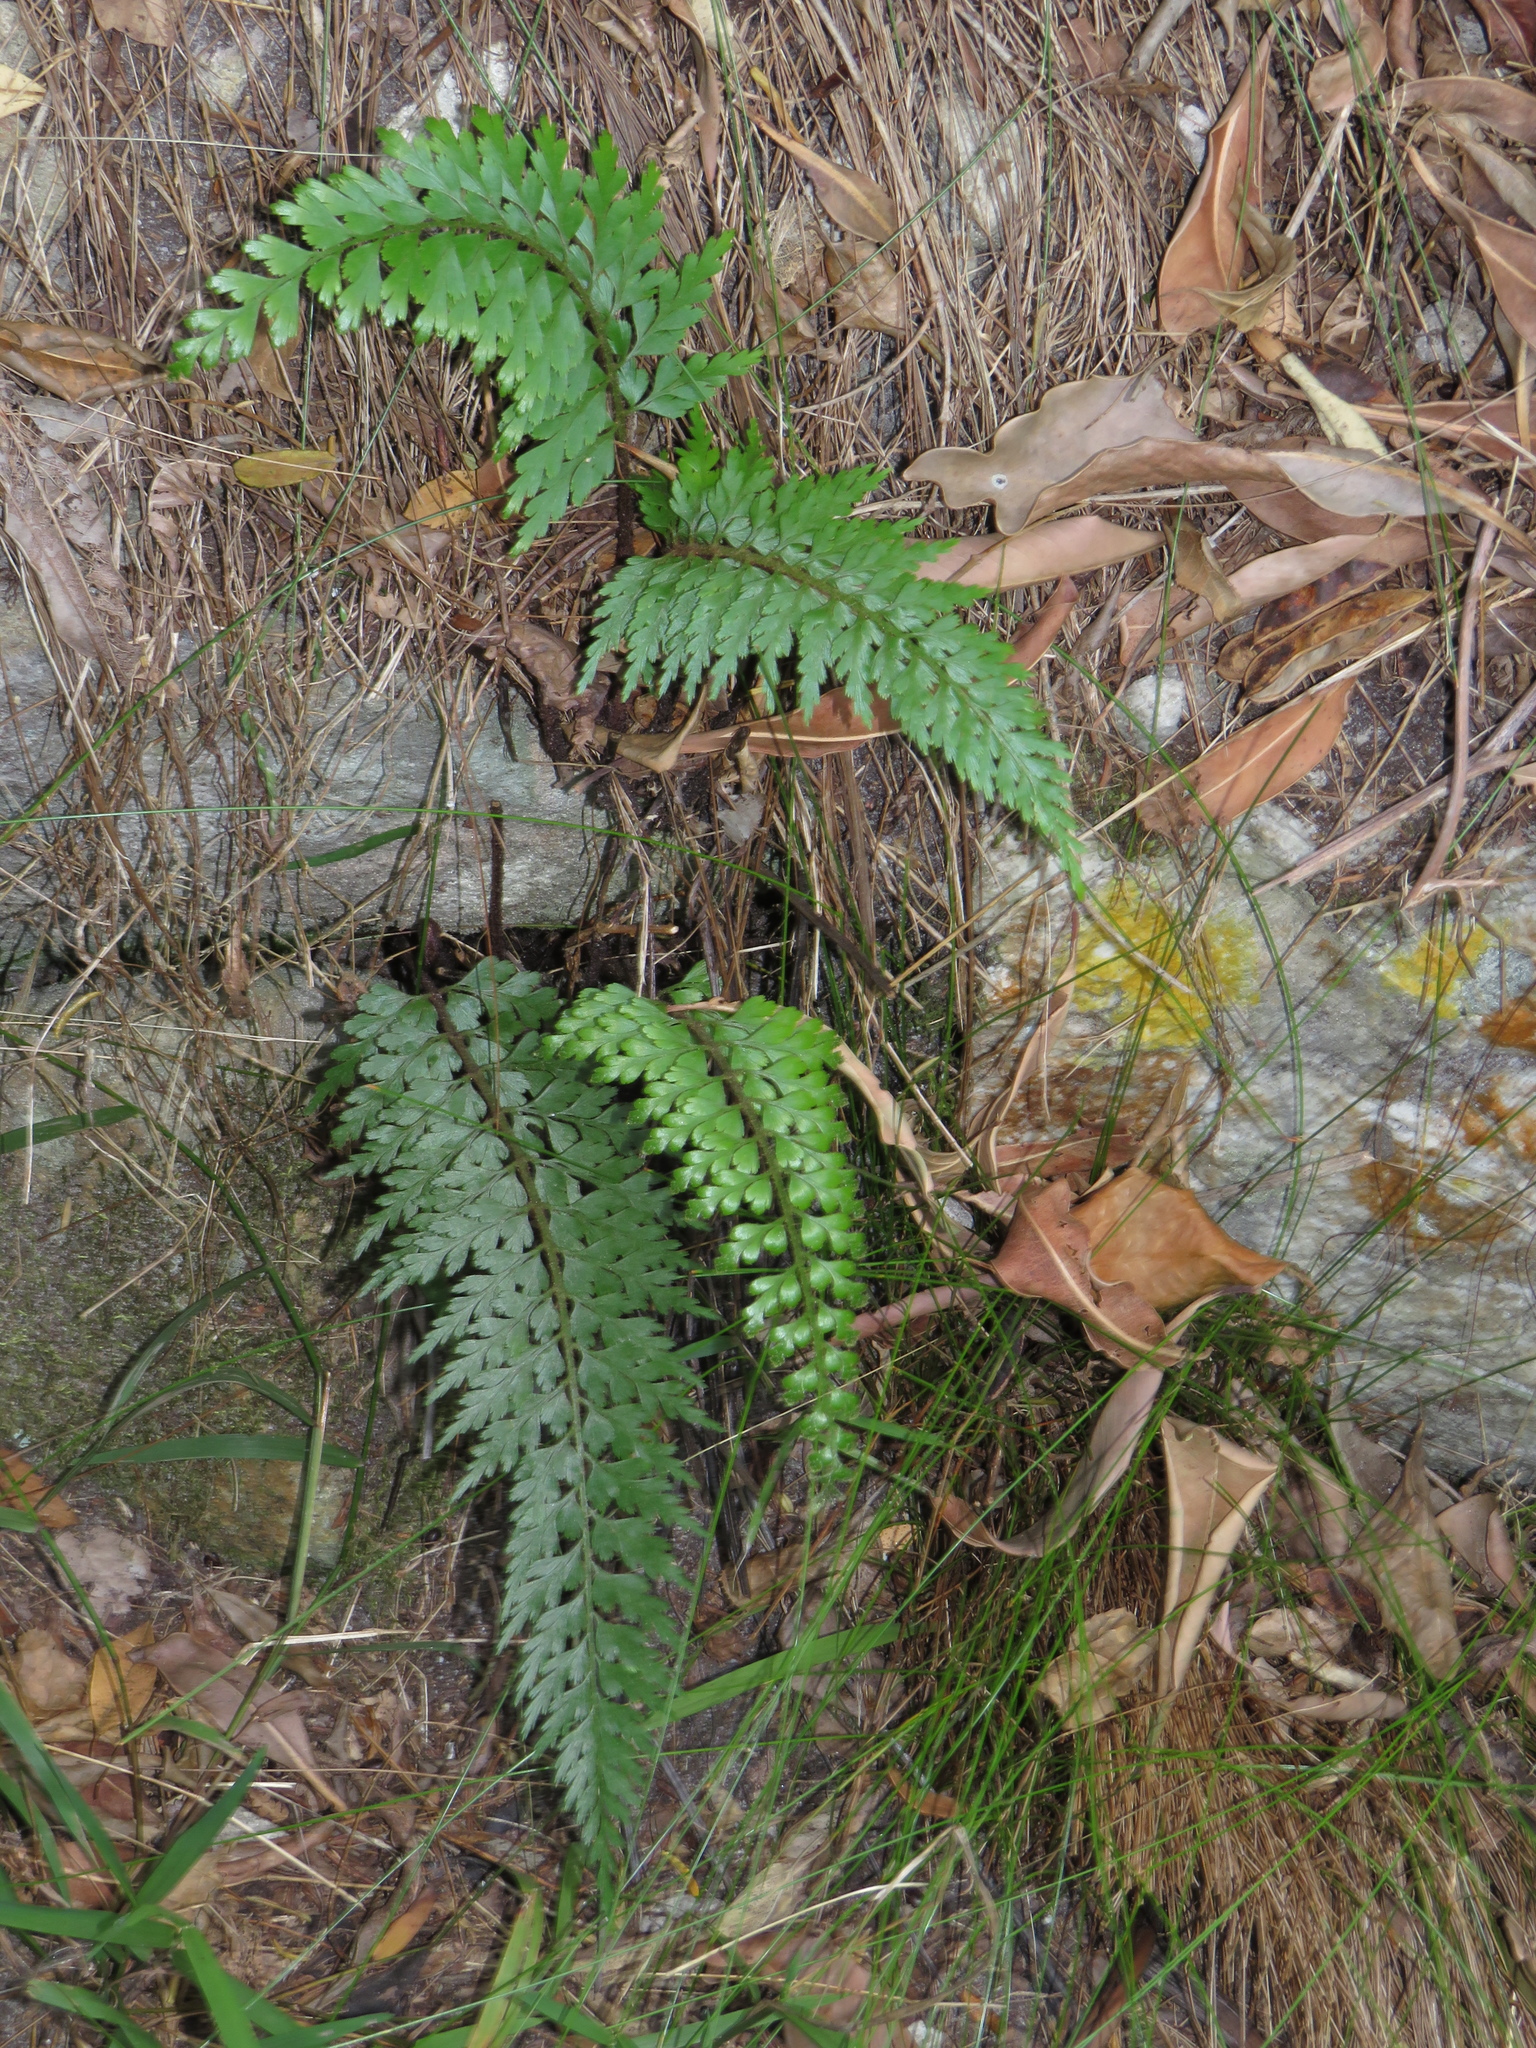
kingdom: Plantae
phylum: Tracheophyta
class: Polypodiopsida
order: Polypodiales
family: Aspleniaceae
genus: Asplenium
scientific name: Asplenium aethiopicum
